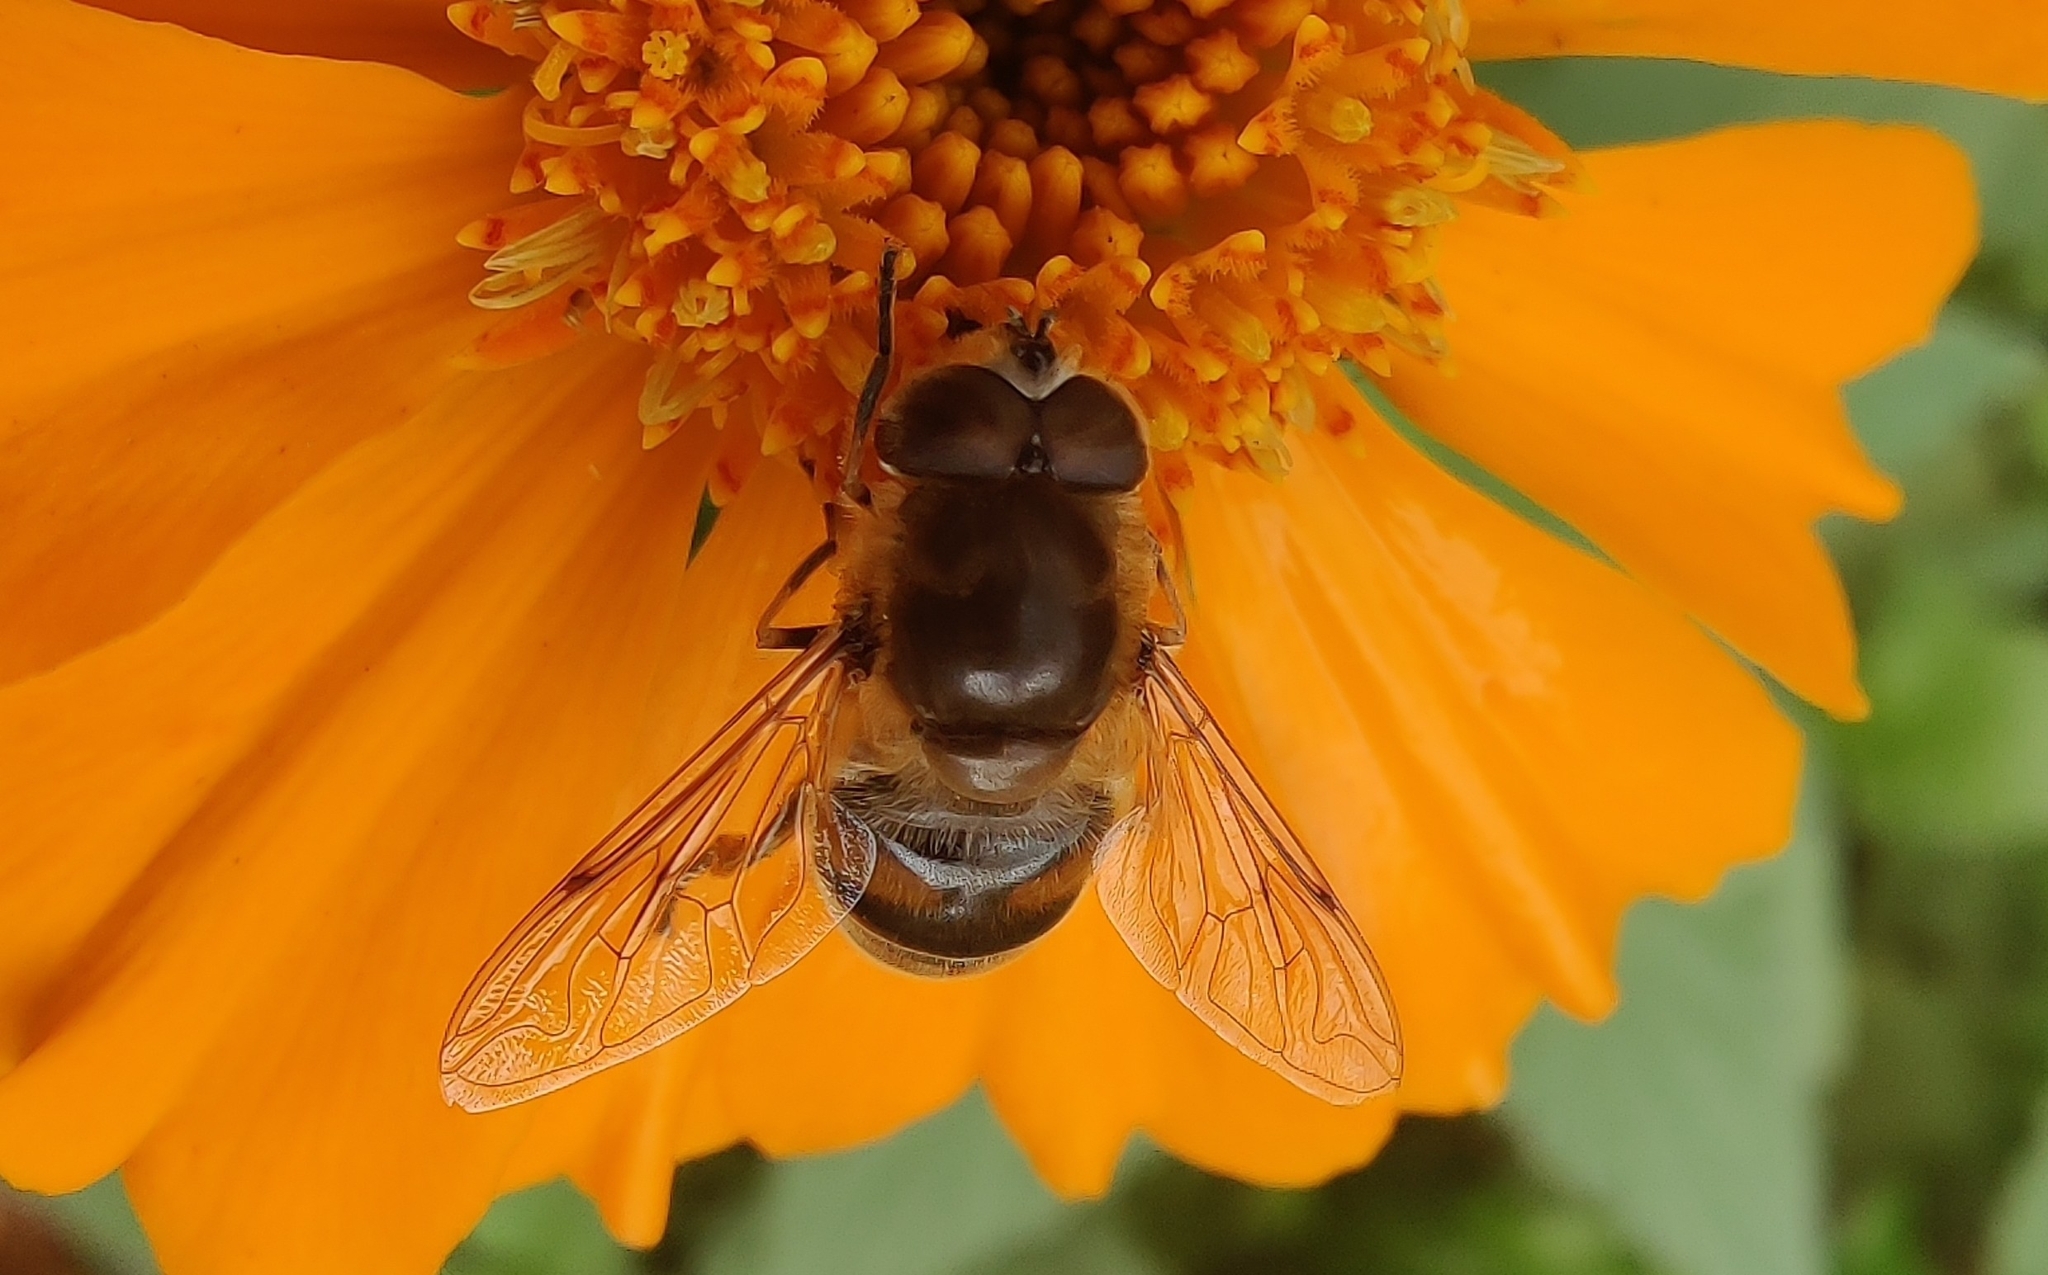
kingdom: Animalia
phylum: Arthropoda
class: Insecta
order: Diptera
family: Syrphidae
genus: Eristalis
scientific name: Eristalis tenax
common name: Drone fly
